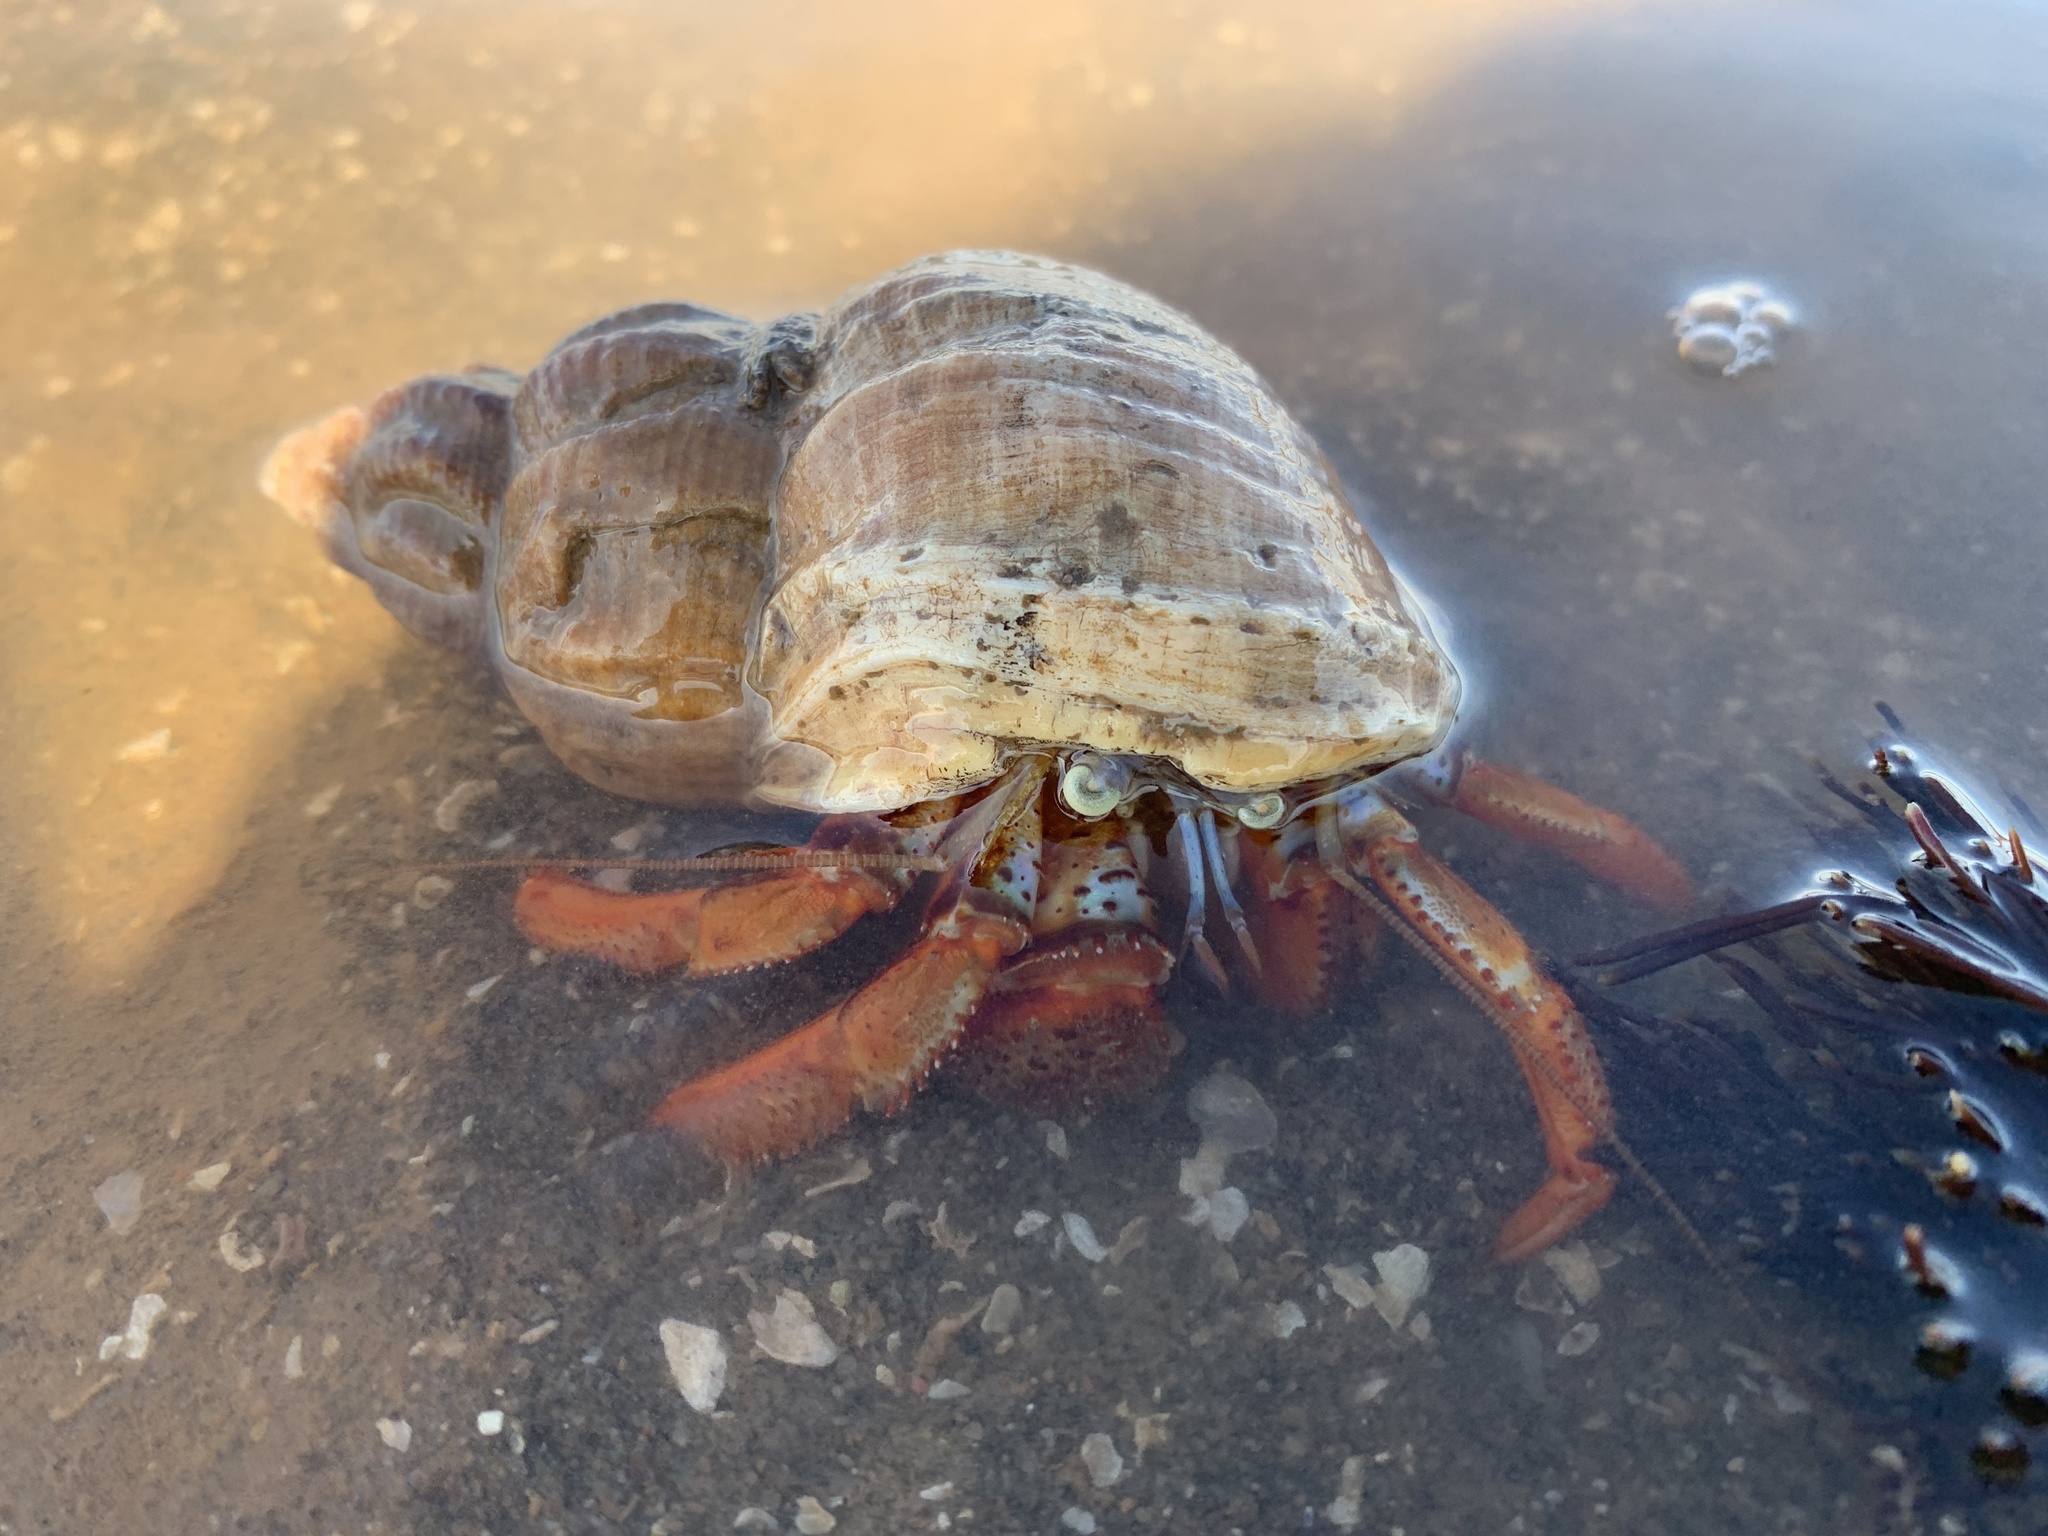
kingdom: Animalia
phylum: Arthropoda
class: Malacostraca
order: Decapoda
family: Paguridae
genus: Pagurus
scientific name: Pagurus acadianus
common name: Acadian hermit crab
